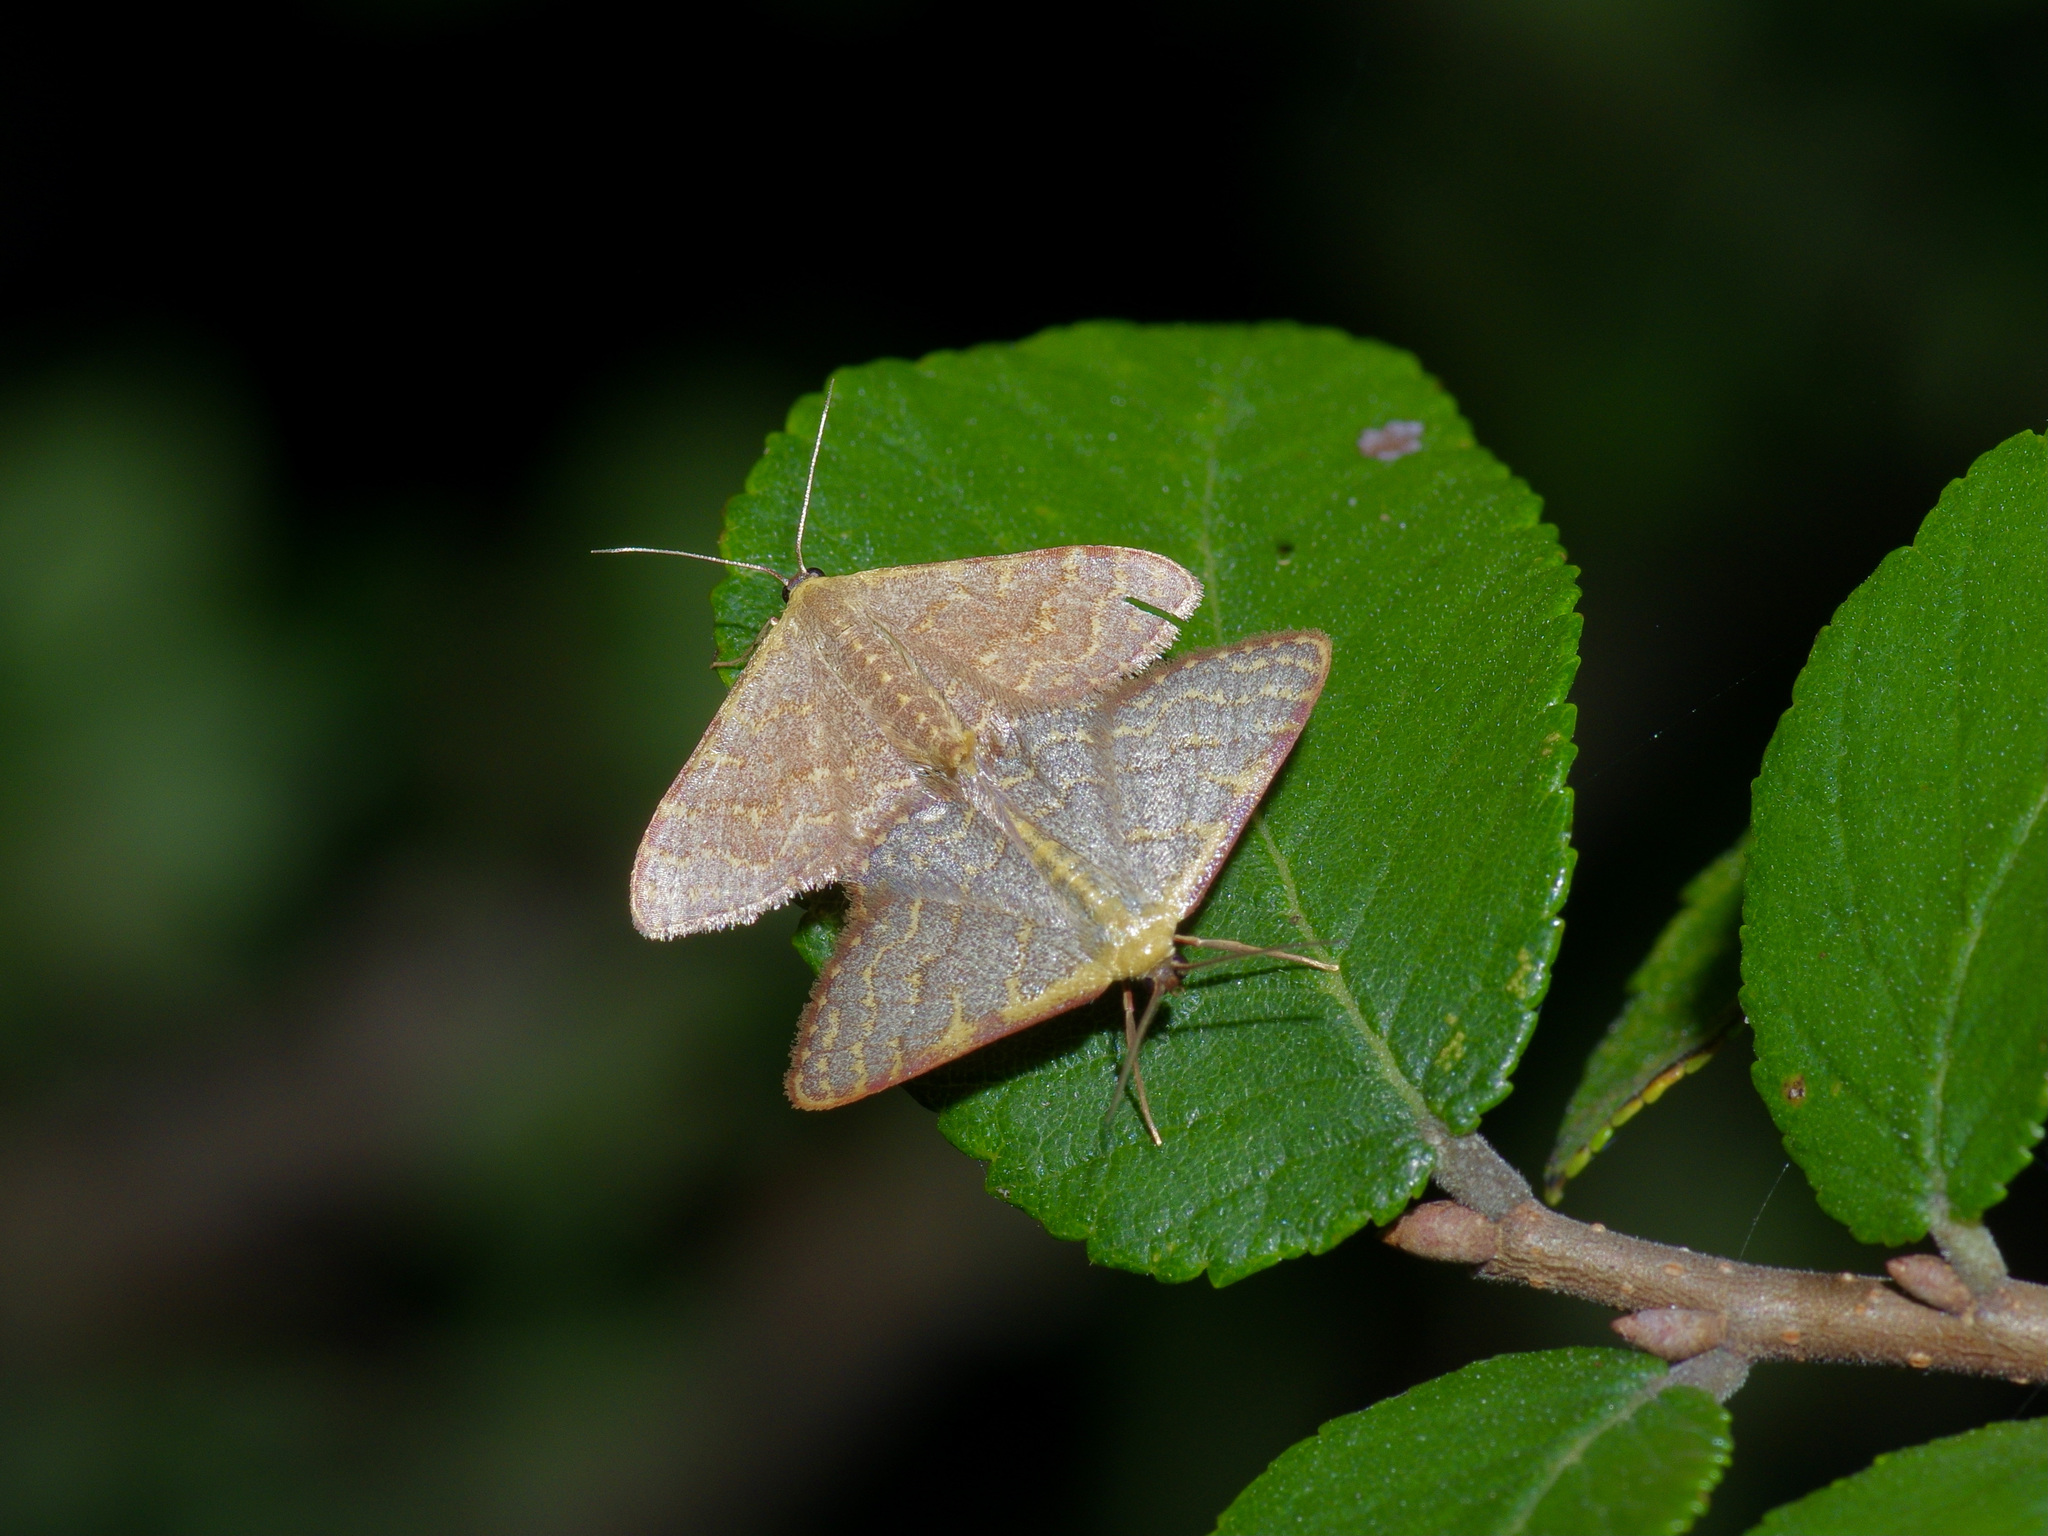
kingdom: Animalia
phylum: Arthropoda
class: Insecta
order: Lepidoptera
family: Geometridae
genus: Leptostales
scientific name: Leptostales pannaria
